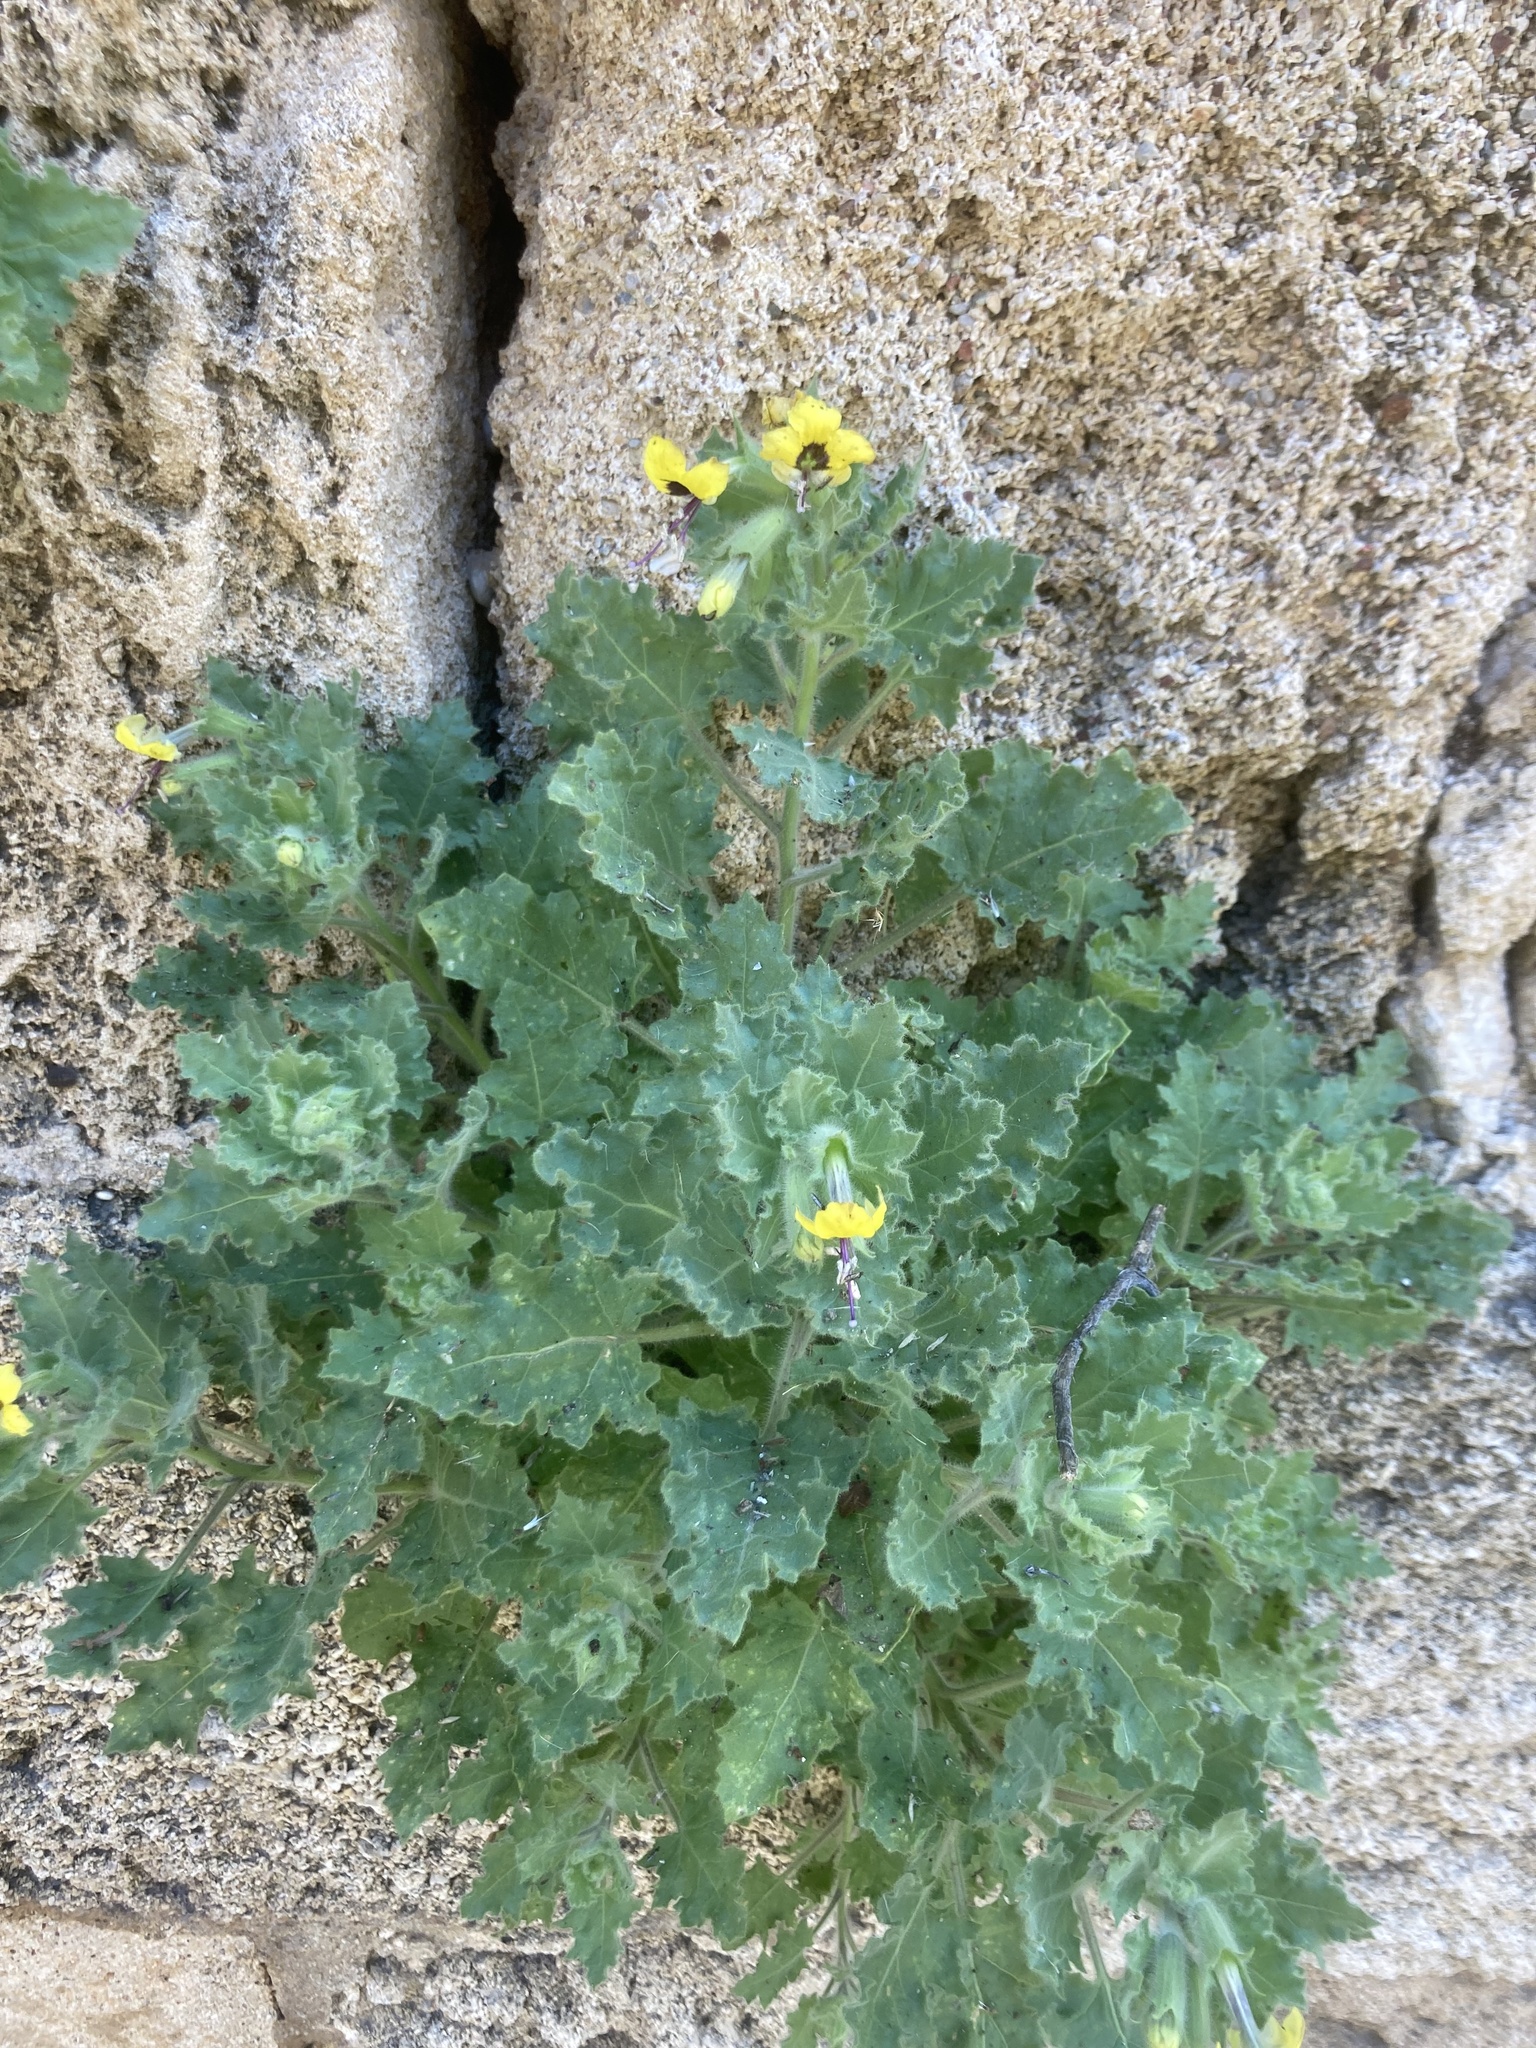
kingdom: Plantae
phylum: Tracheophyta
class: Magnoliopsida
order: Solanales
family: Solanaceae
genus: Hyoscyamus
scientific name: Hyoscyamus aureus
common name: Golden henbane
